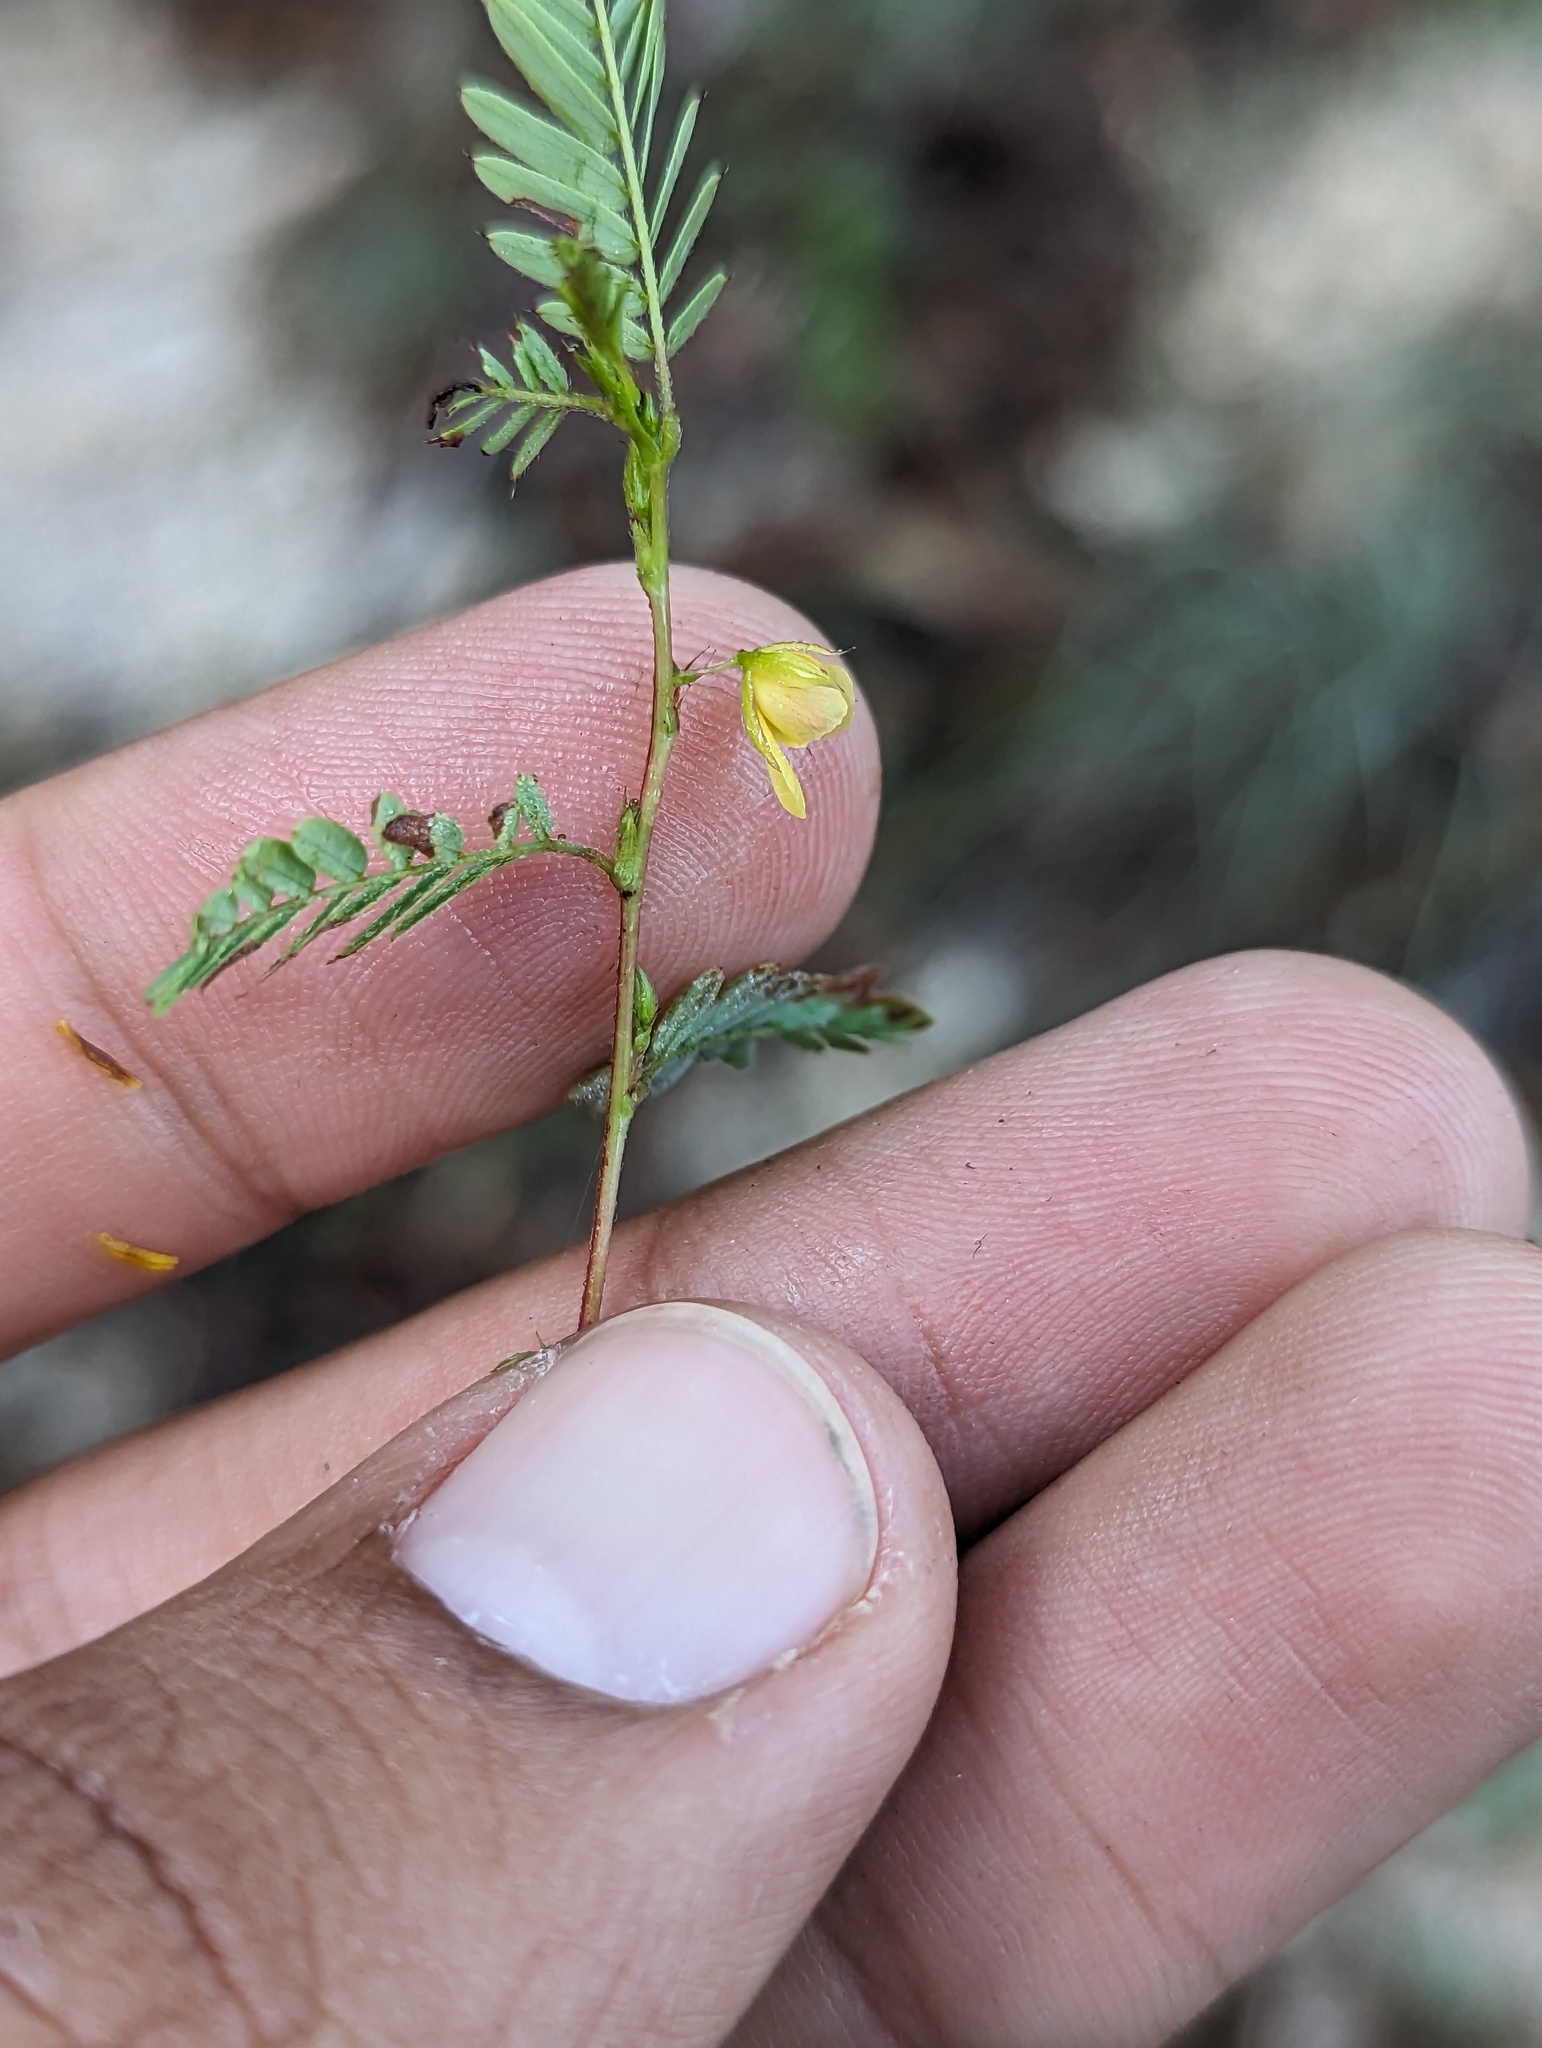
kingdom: Plantae
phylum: Tracheophyta
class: Magnoliopsida
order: Fabales
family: Fabaceae
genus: Chamaecrista
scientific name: Chamaecrista nictitans
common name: Sensitive cassia
